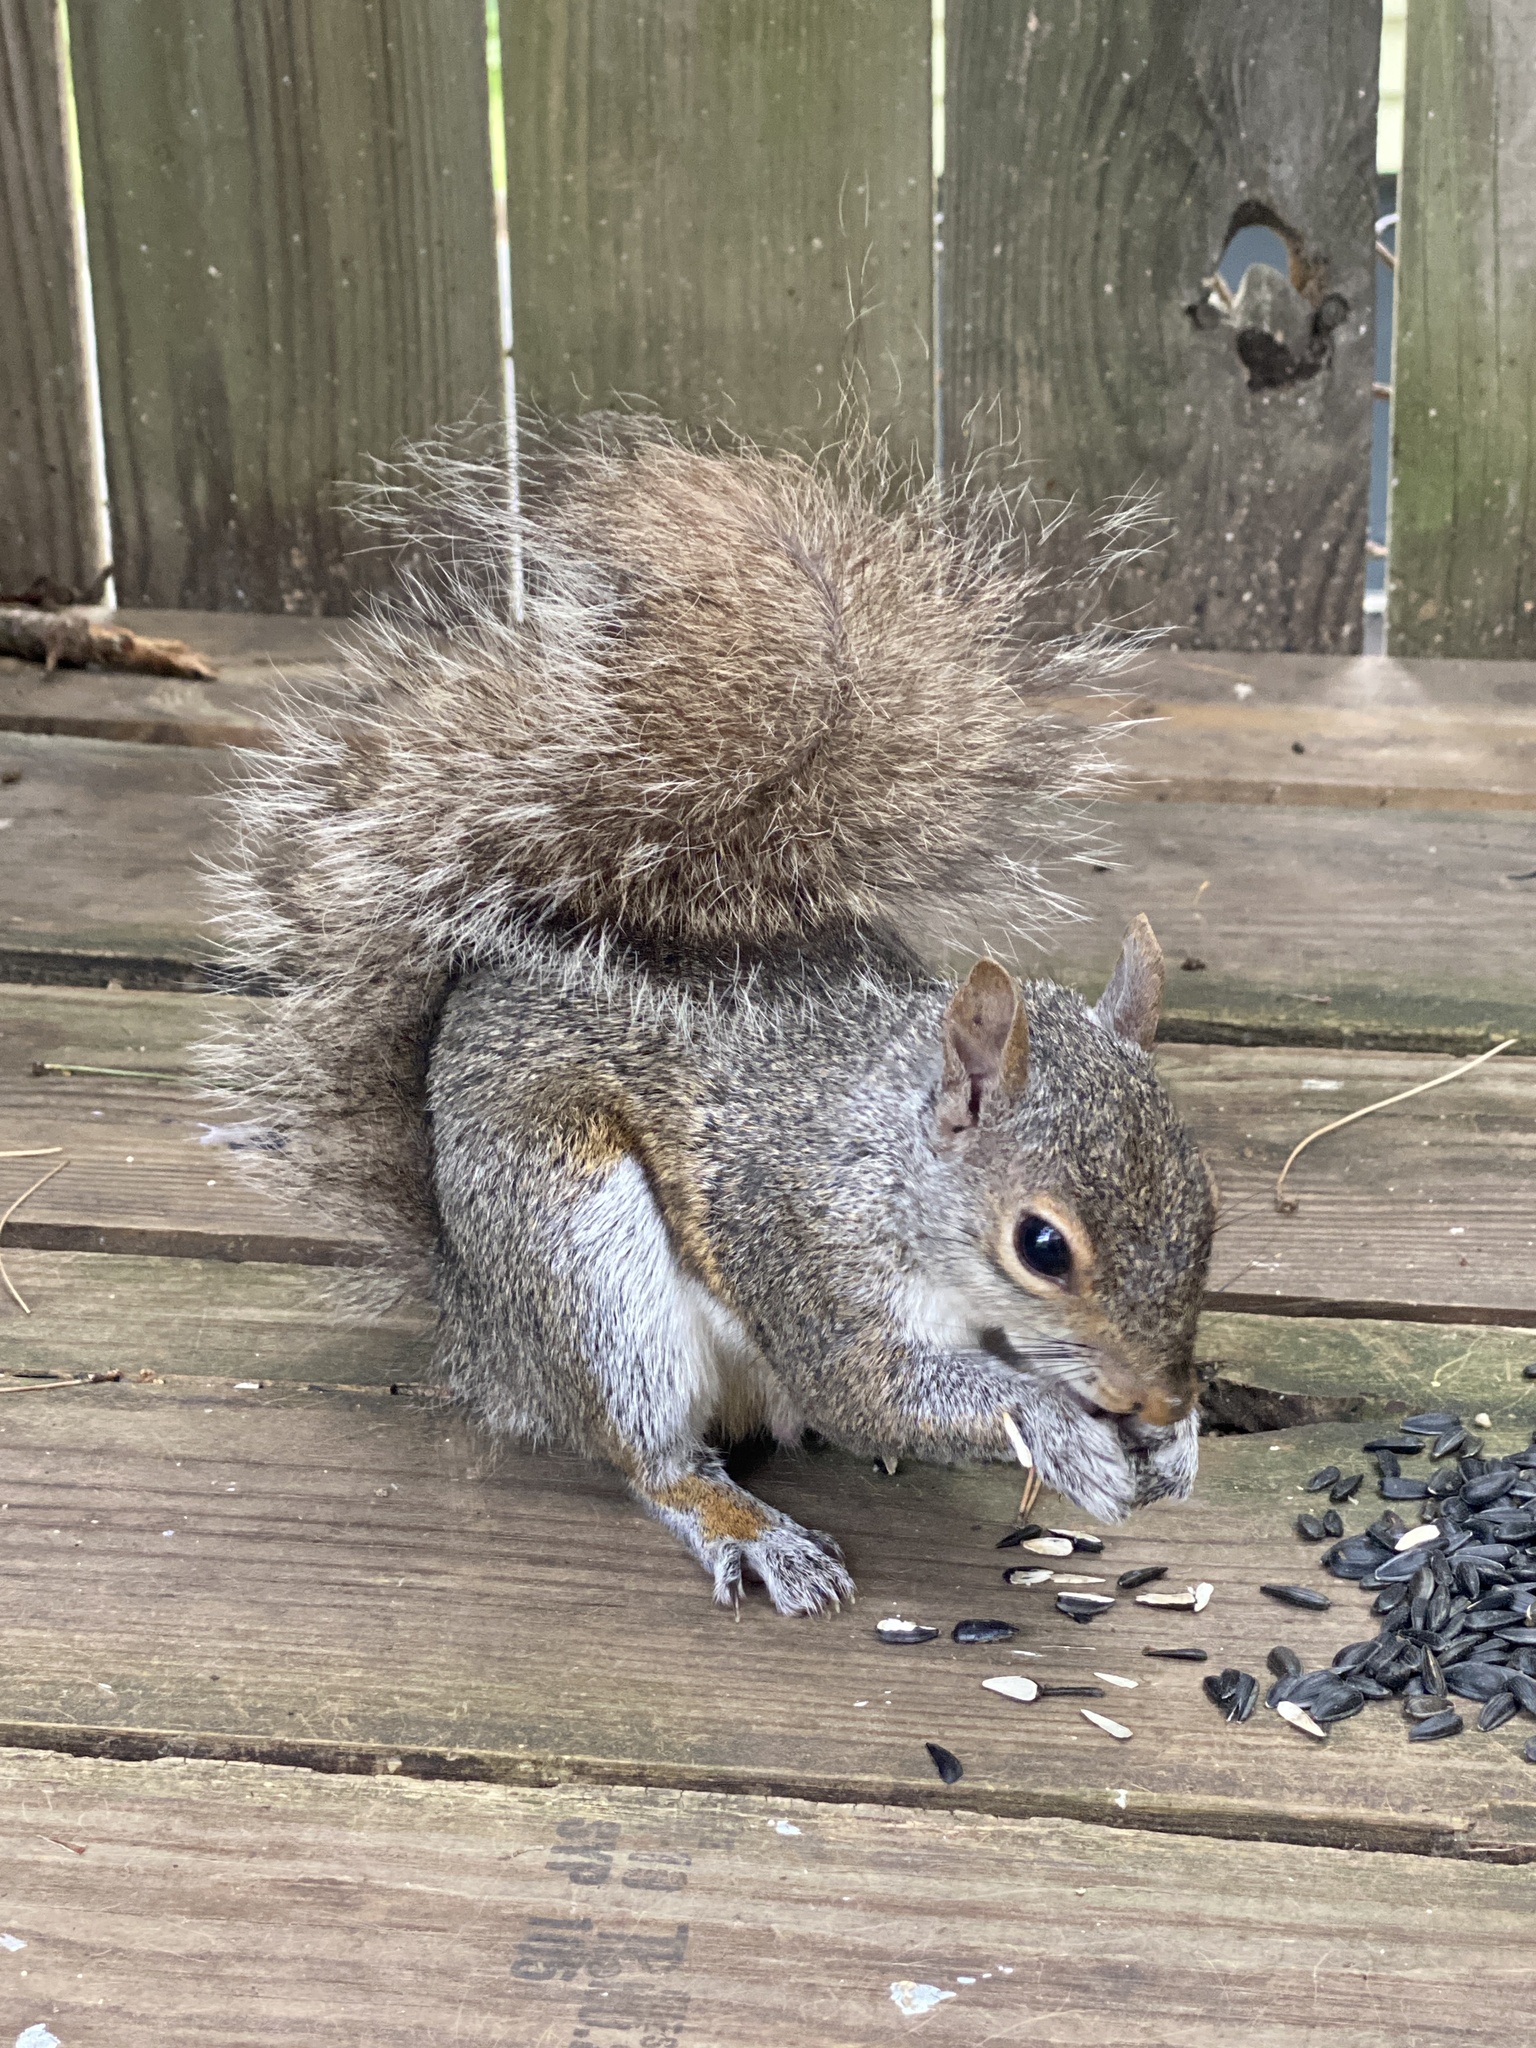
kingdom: Animalia
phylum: Chordata
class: Mammalia
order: Rodentia
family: Sciuridae
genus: Sciurus
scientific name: Sciurus carolinensis
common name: Eastern gray squirrel
